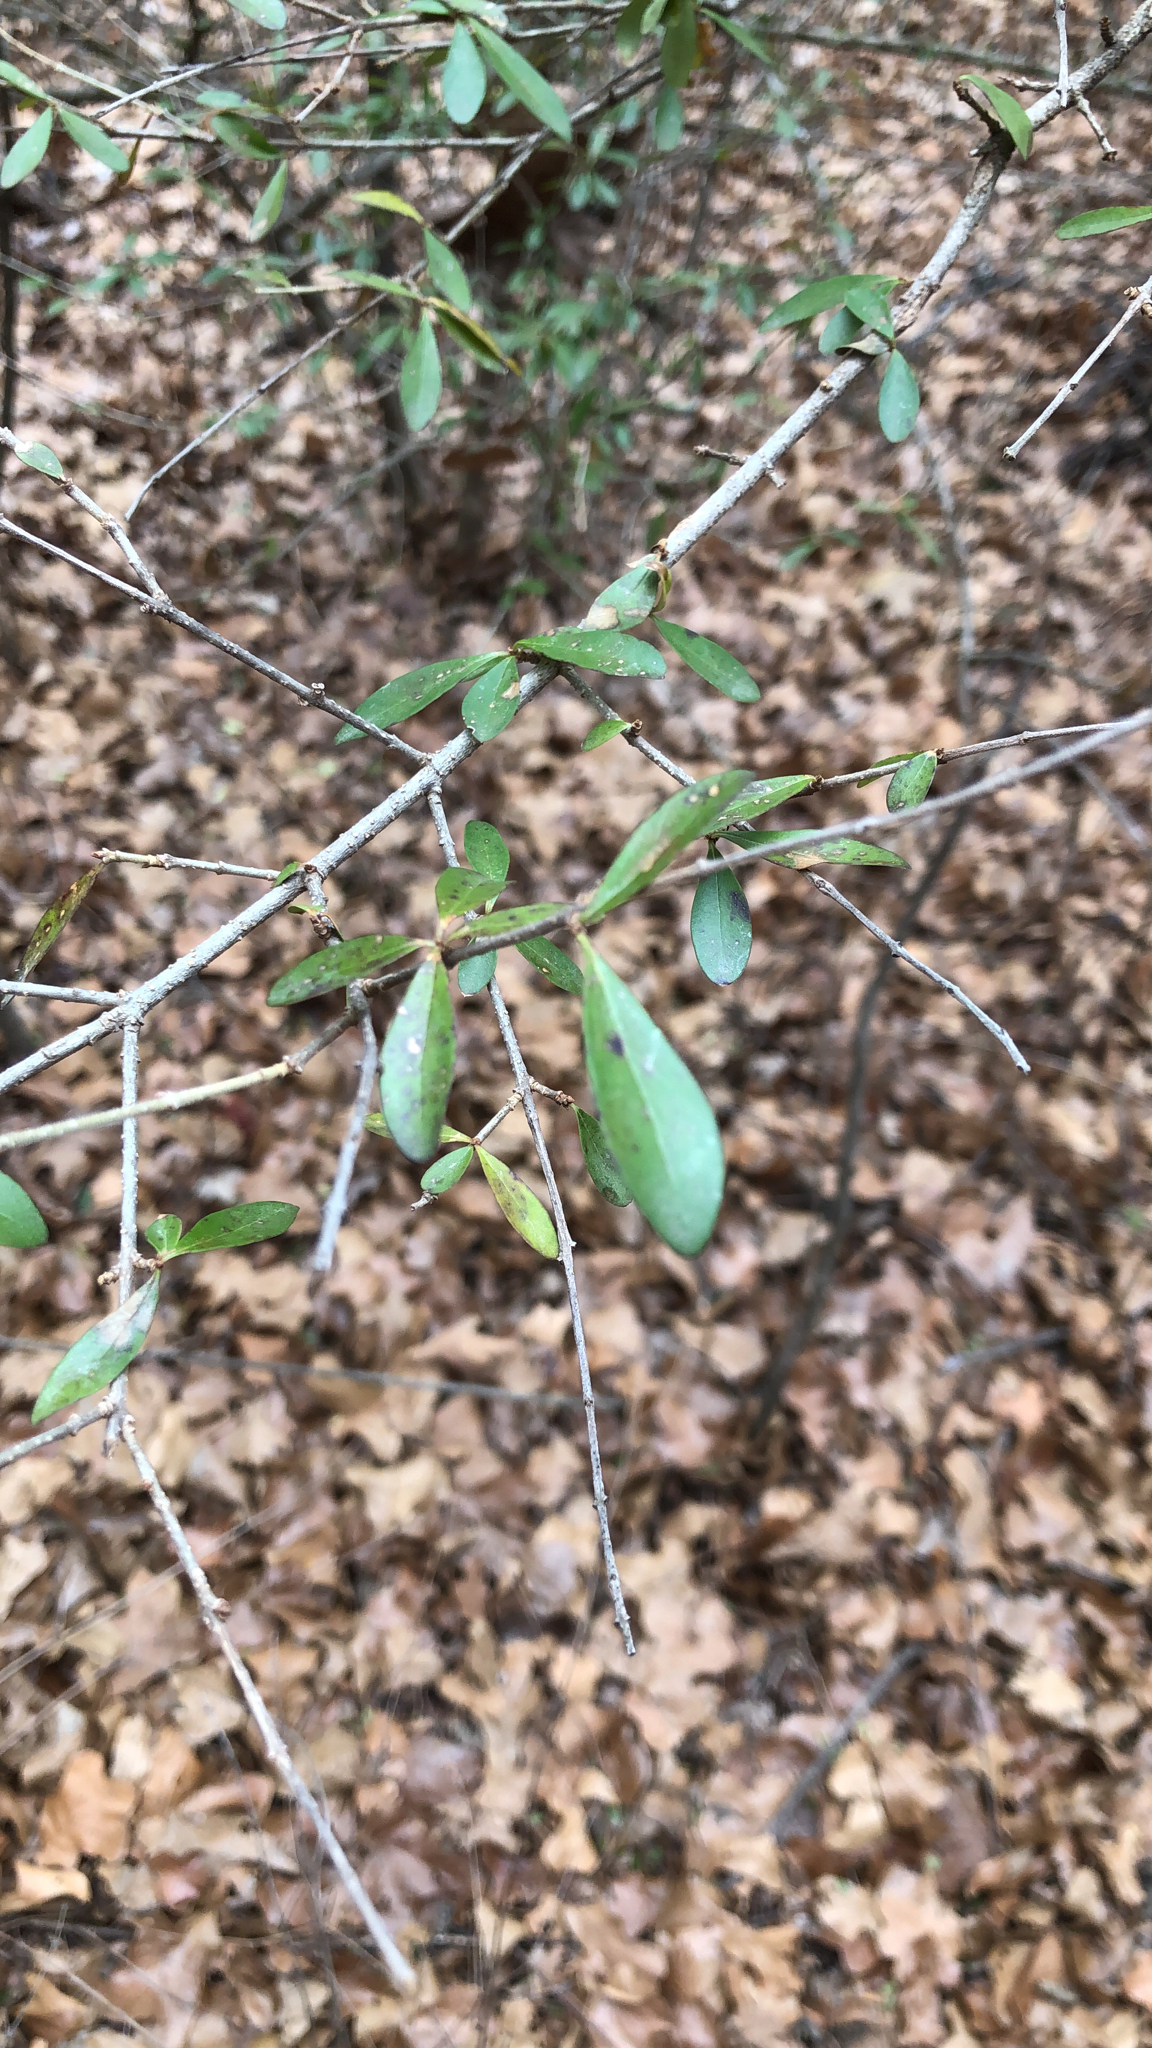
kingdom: Plantae
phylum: Tracheophyta
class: Magnoliopsida
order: Lamiales
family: Oleaceae
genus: Ligustrum
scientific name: Ligustrum quihoui
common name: Waxyleaf privet
